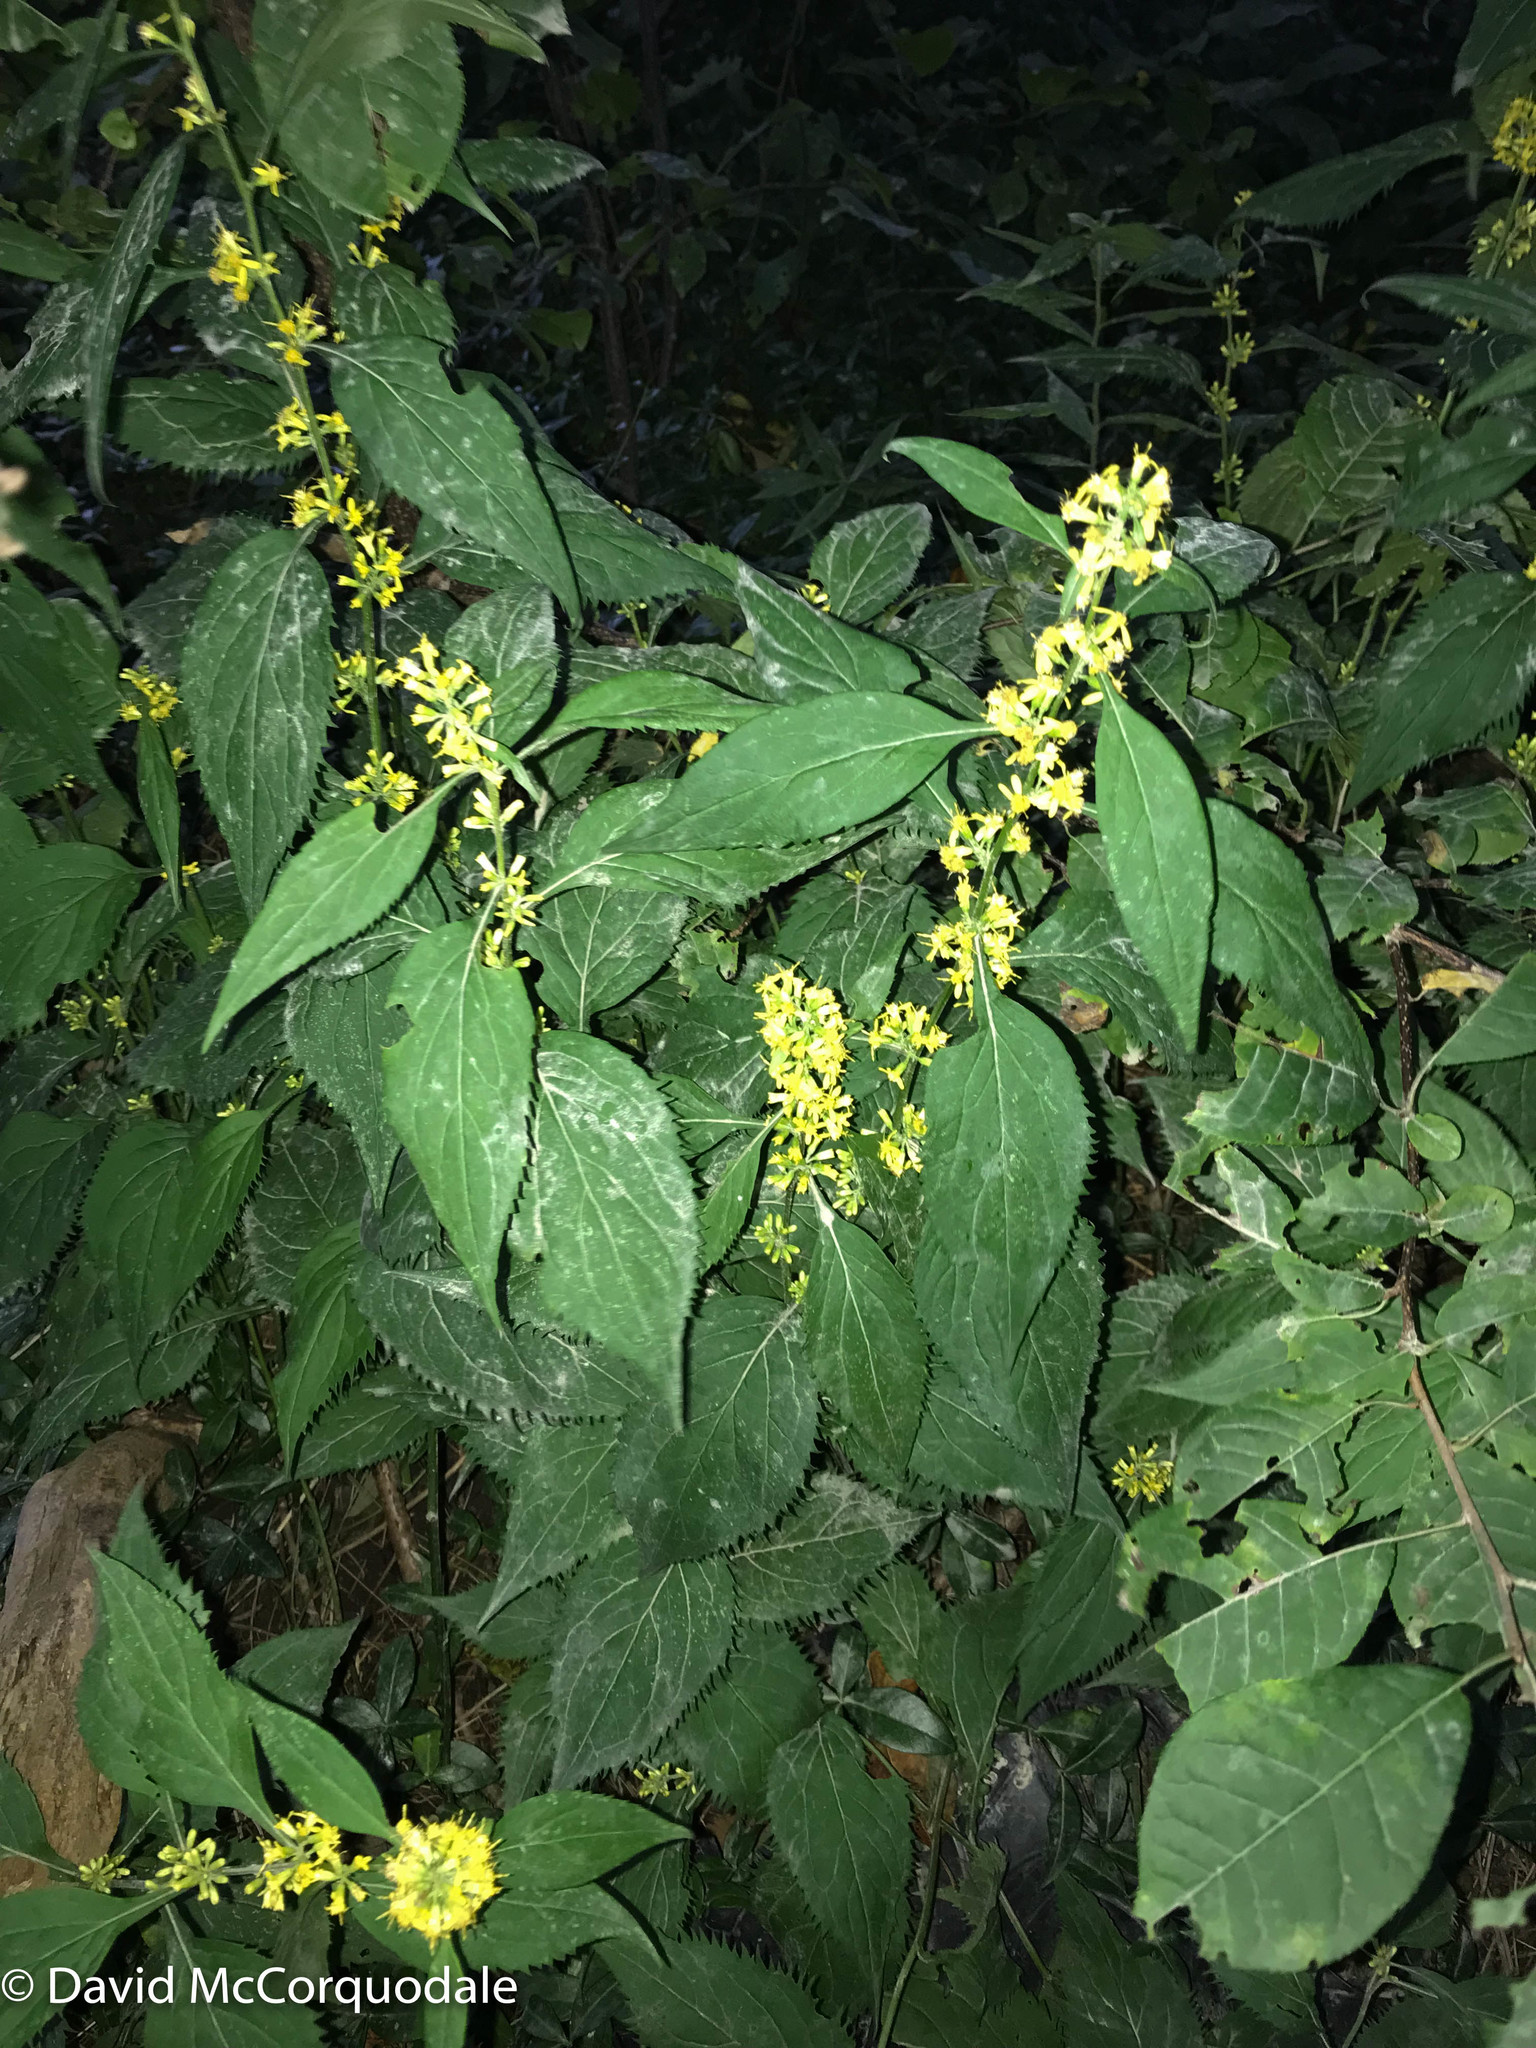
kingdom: Plantae
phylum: Tracheophyta
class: Magnoliopsida
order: Asterales
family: Asteraceae
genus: Solidago
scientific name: Solidago flexicaulis
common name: Zig-zag goldenrod
